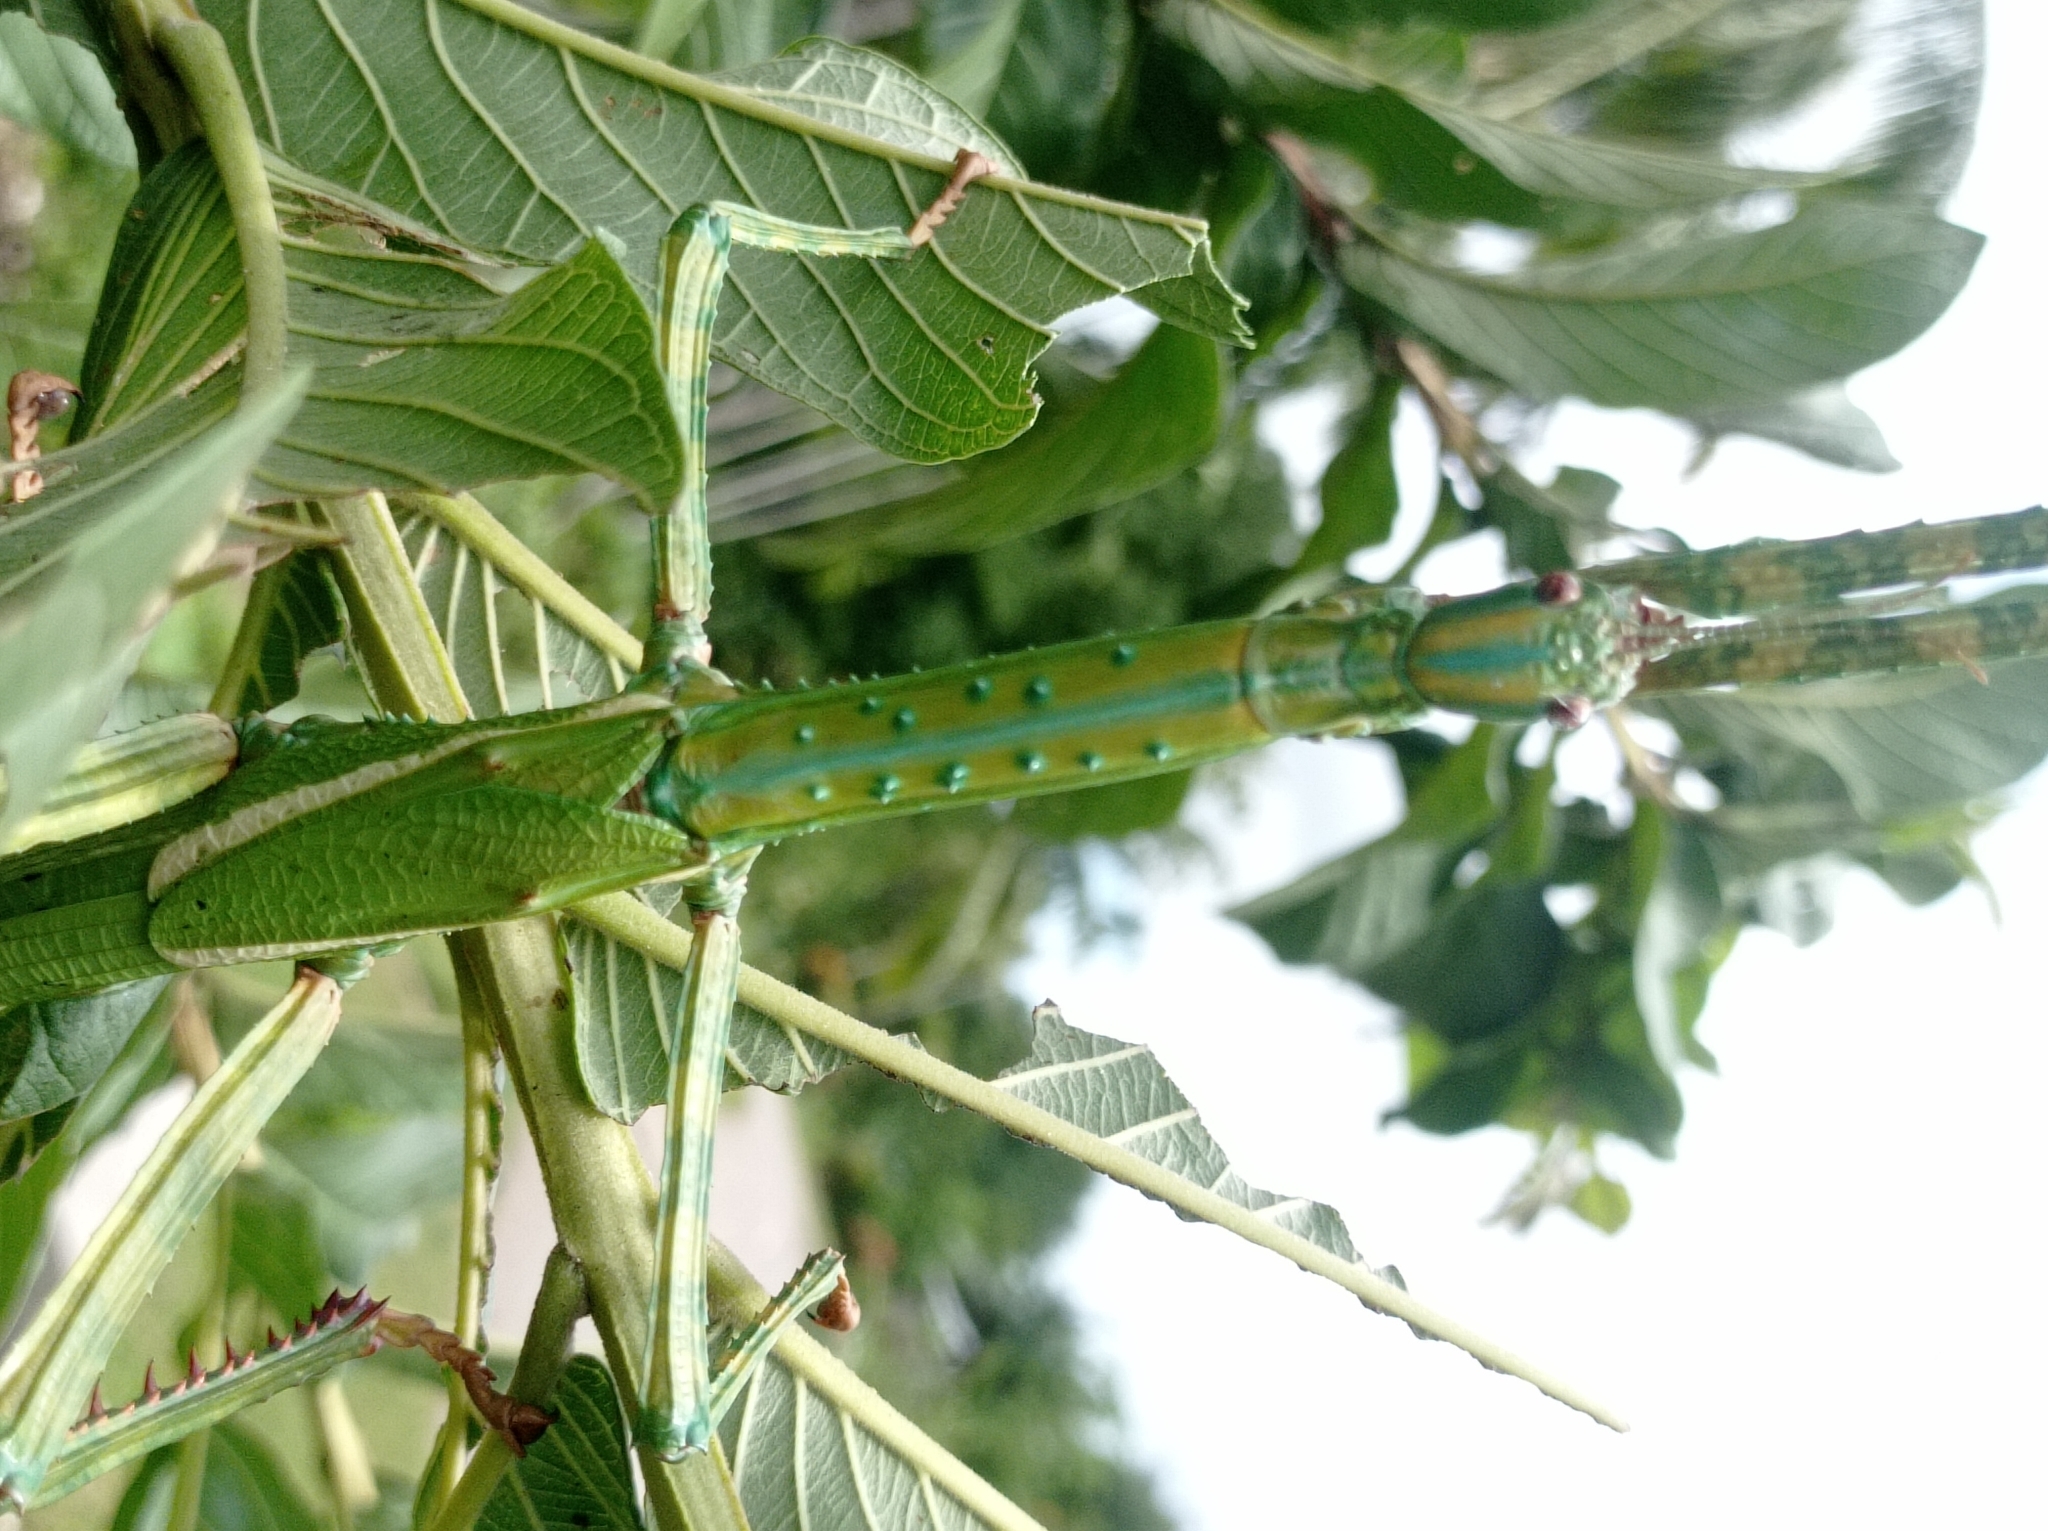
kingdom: Animalia
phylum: Arthropoda
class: Insecta
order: Phasmida
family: Phasmatidae
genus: Eurycnema
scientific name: Eurycnema versirubra
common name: Red-winged green giant stick-insect
